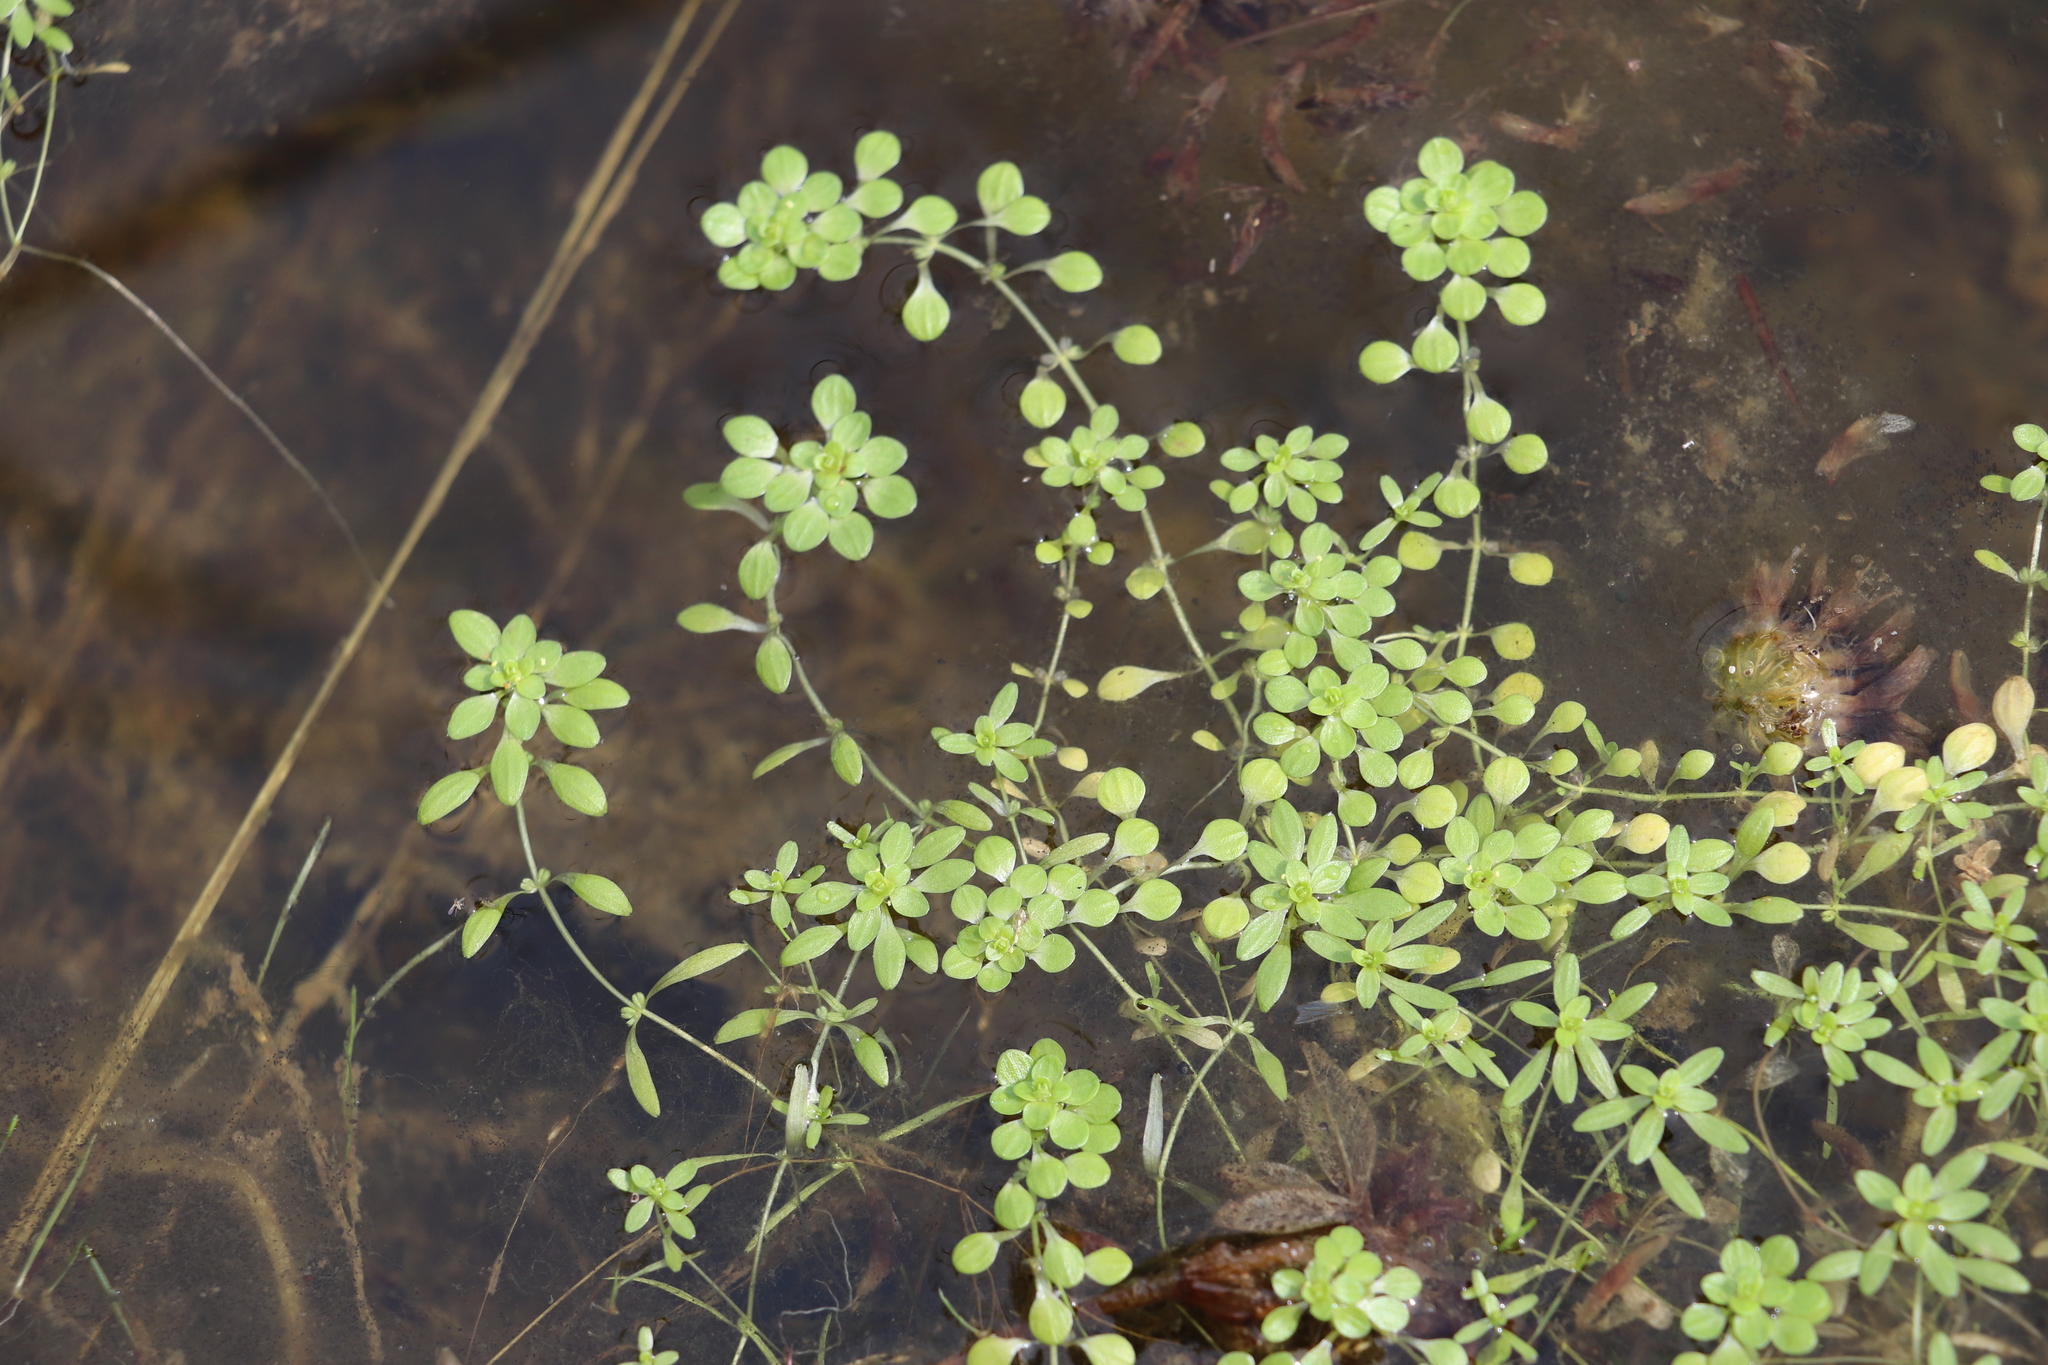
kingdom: Plantae
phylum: Tracheophyta
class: Magnoliopsida
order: Lamiales
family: Plantaginaceae
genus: Callitriche
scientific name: Callitriche palustris
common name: Spring water-starwort
